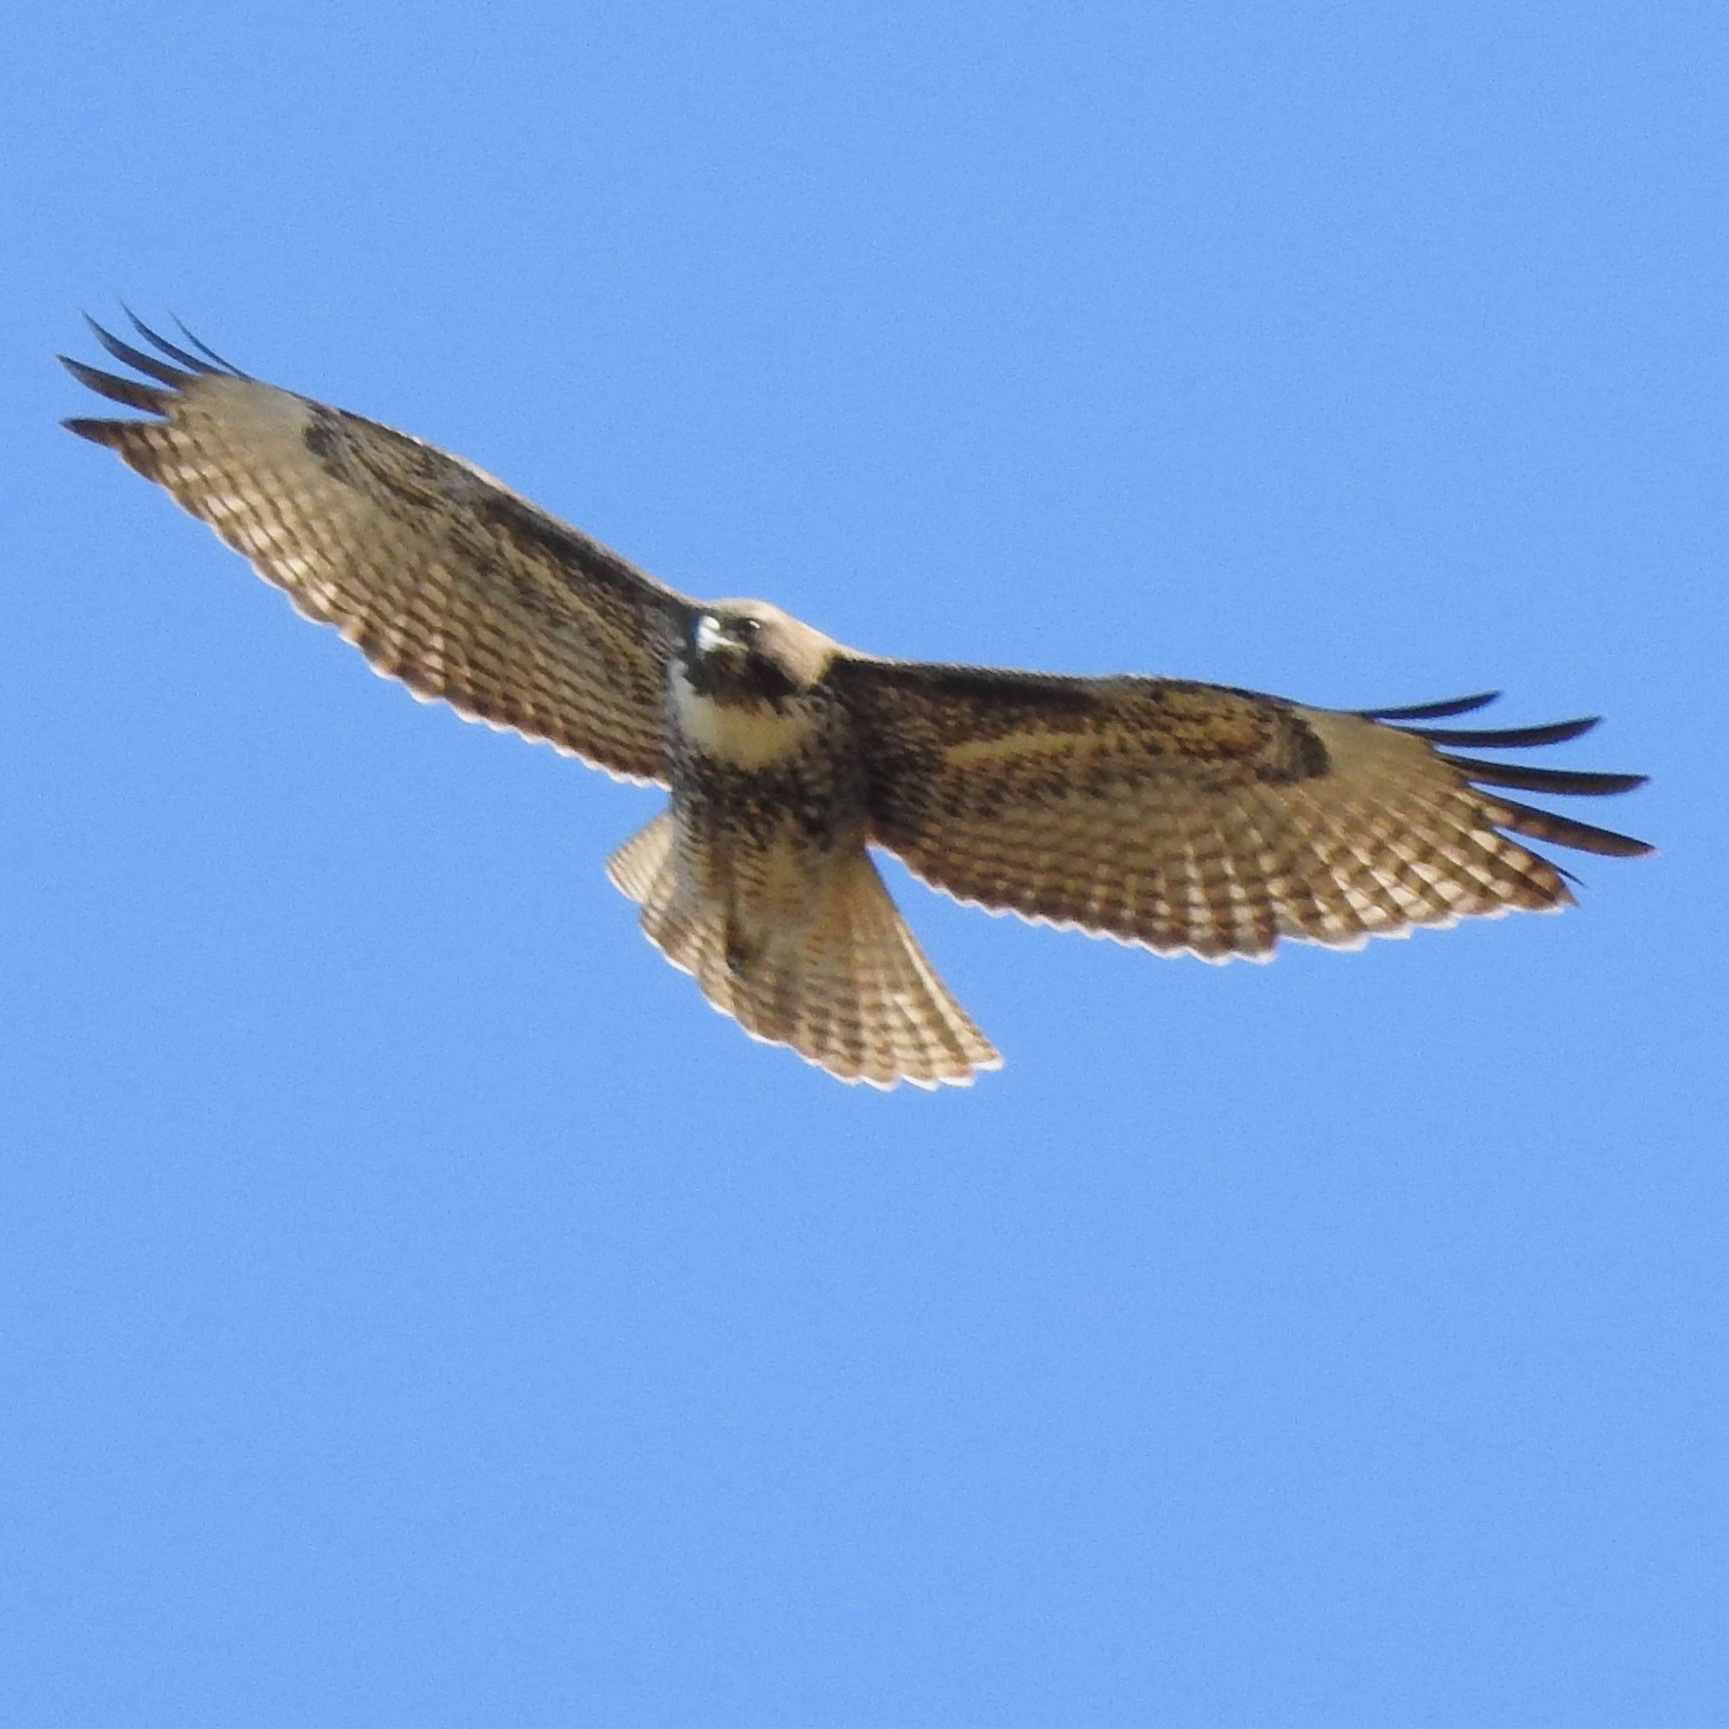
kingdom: Animalia
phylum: Chordata
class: Aves
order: Accipitriformes
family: Accipitridae
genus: Buteo
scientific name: Buteo jamaicensis
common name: Red-tailed hawk
